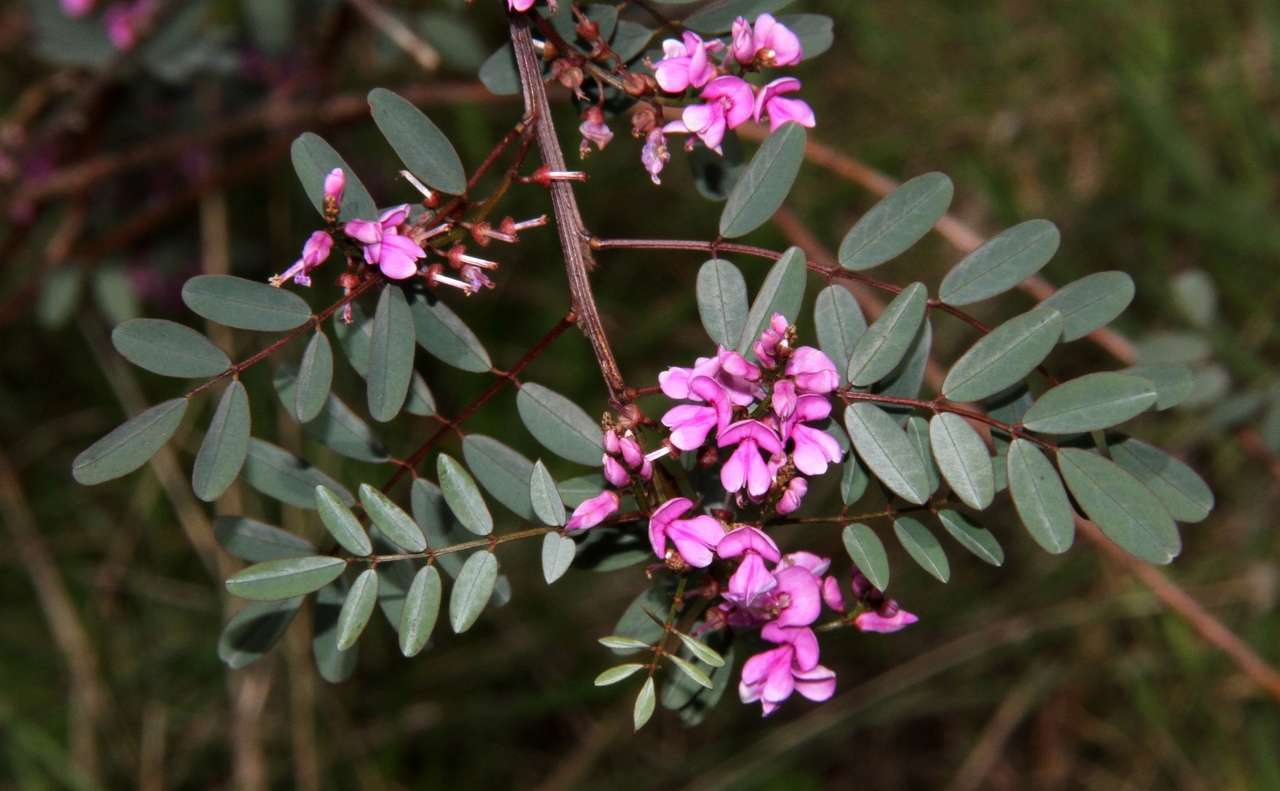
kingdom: Plantae
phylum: Tracheophyta
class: Magnoliopsida
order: Fabales
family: Fabaceae
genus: Indigofera
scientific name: Indigofera australis
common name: Australian indigo
